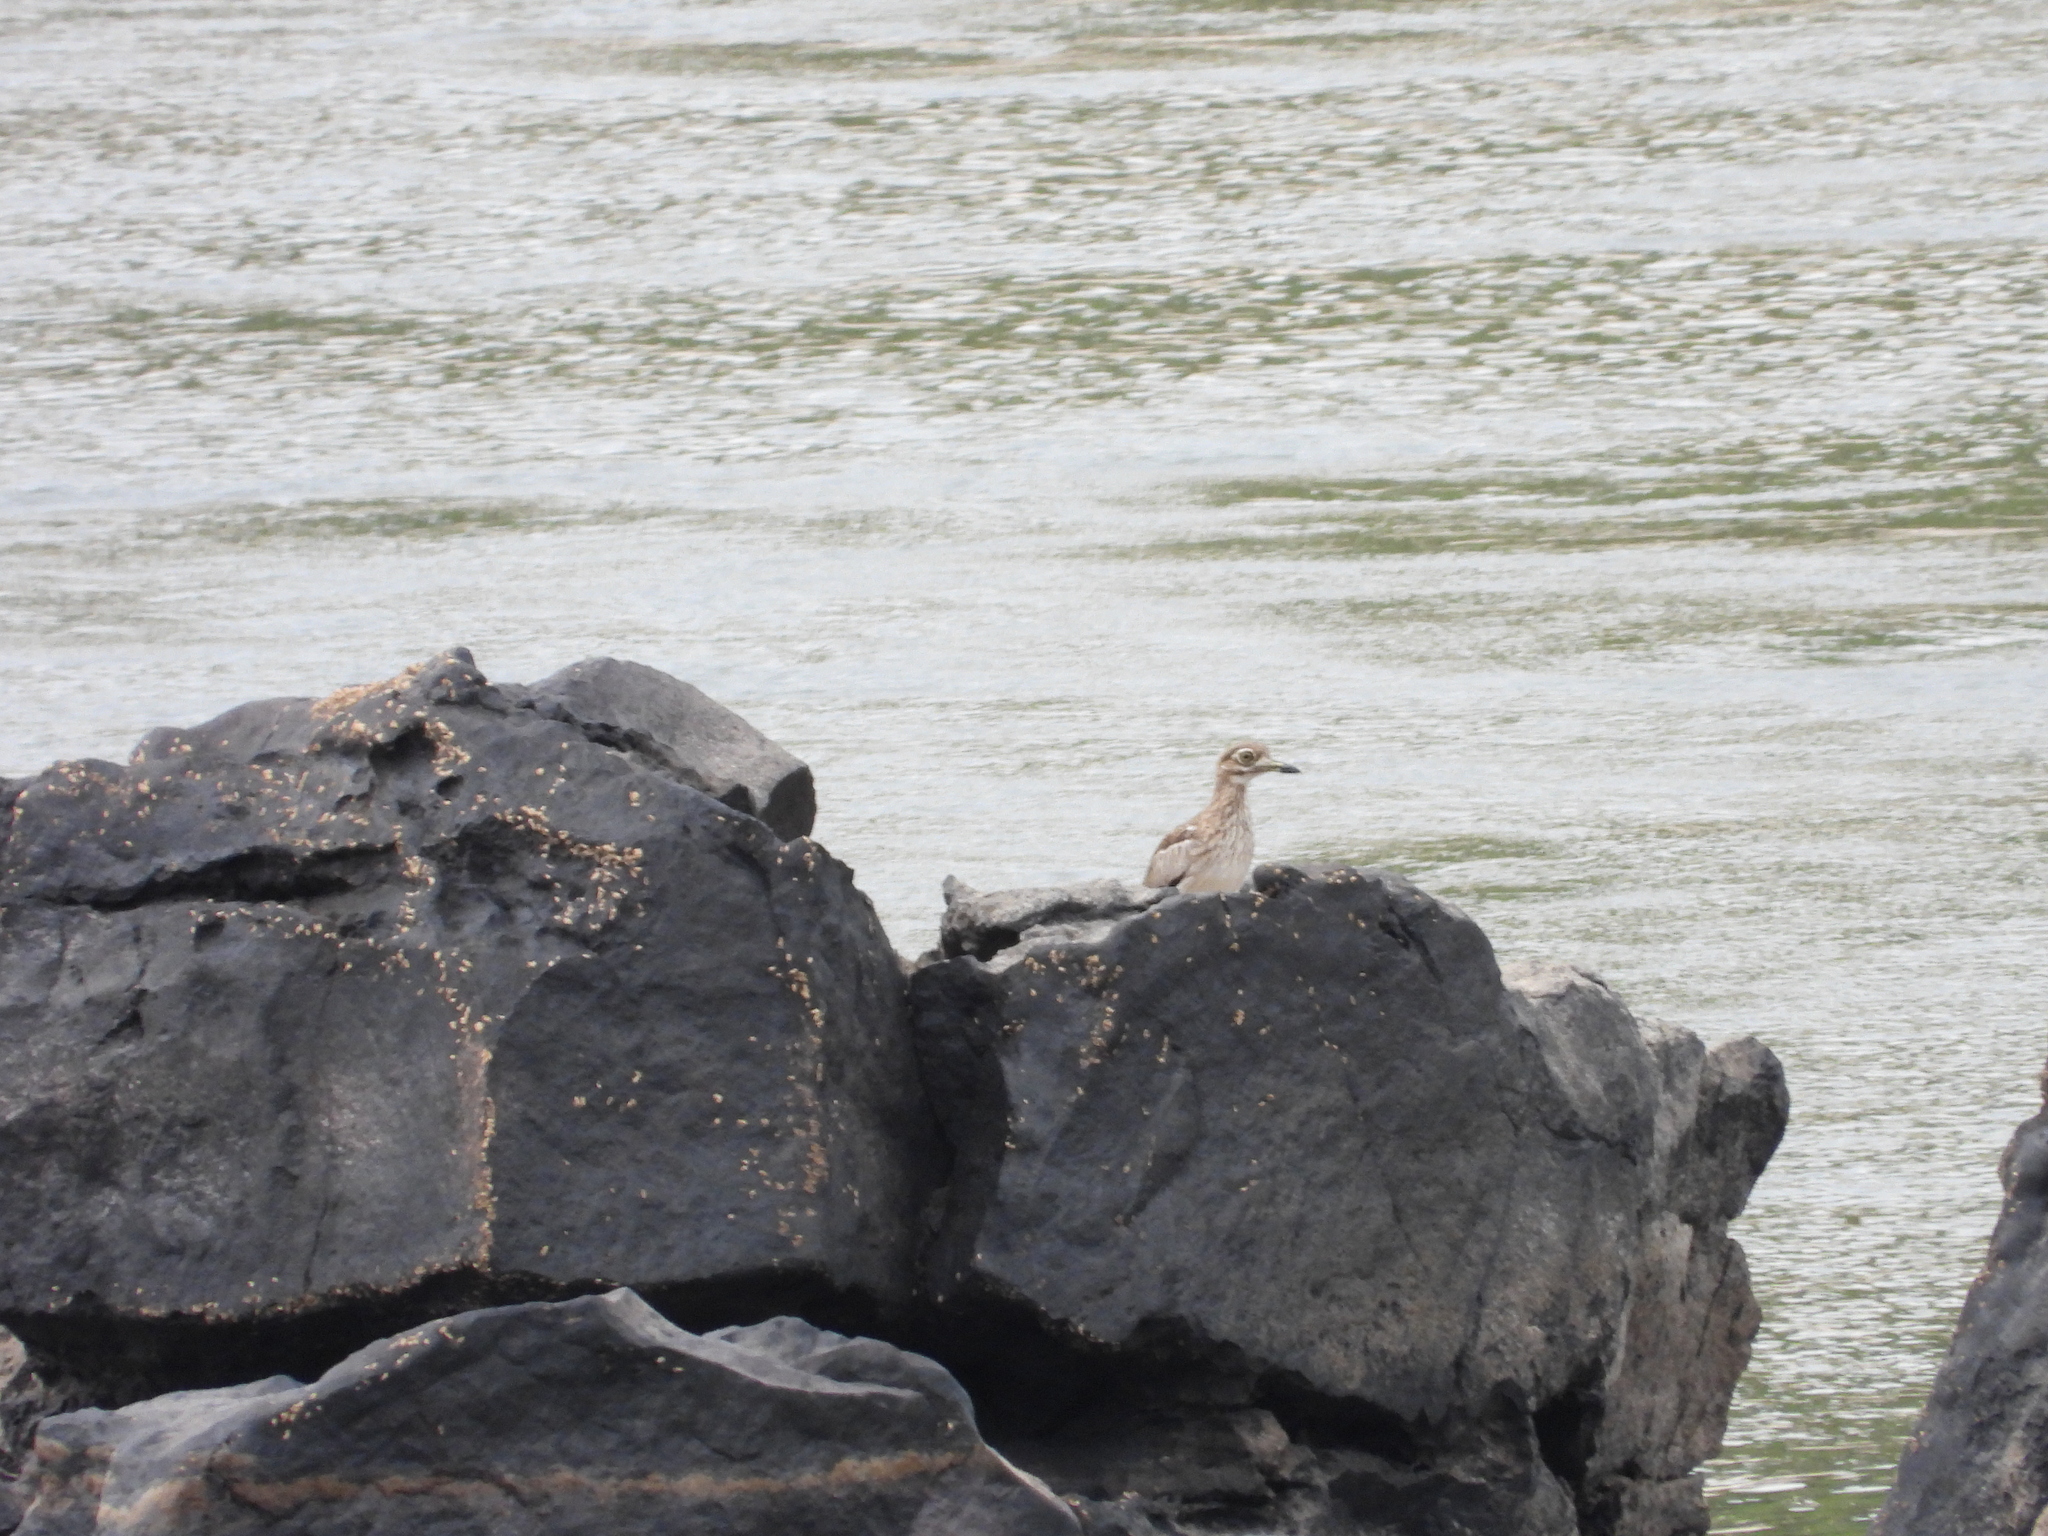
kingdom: Animalia
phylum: Chordata
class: Aves
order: Charadriiformes
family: Burhinidae
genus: Burhinus
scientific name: Burhinus vermiculatus
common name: Water thick-knee
